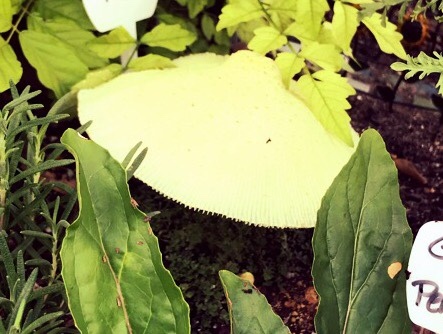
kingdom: Fungi
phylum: Basidiomycota
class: Agaricomycetes
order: Agaricales
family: Agaricaceae
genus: Leucocoprinus
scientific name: Leucocoprinus birnbaumii
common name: Plantpot dapperling
